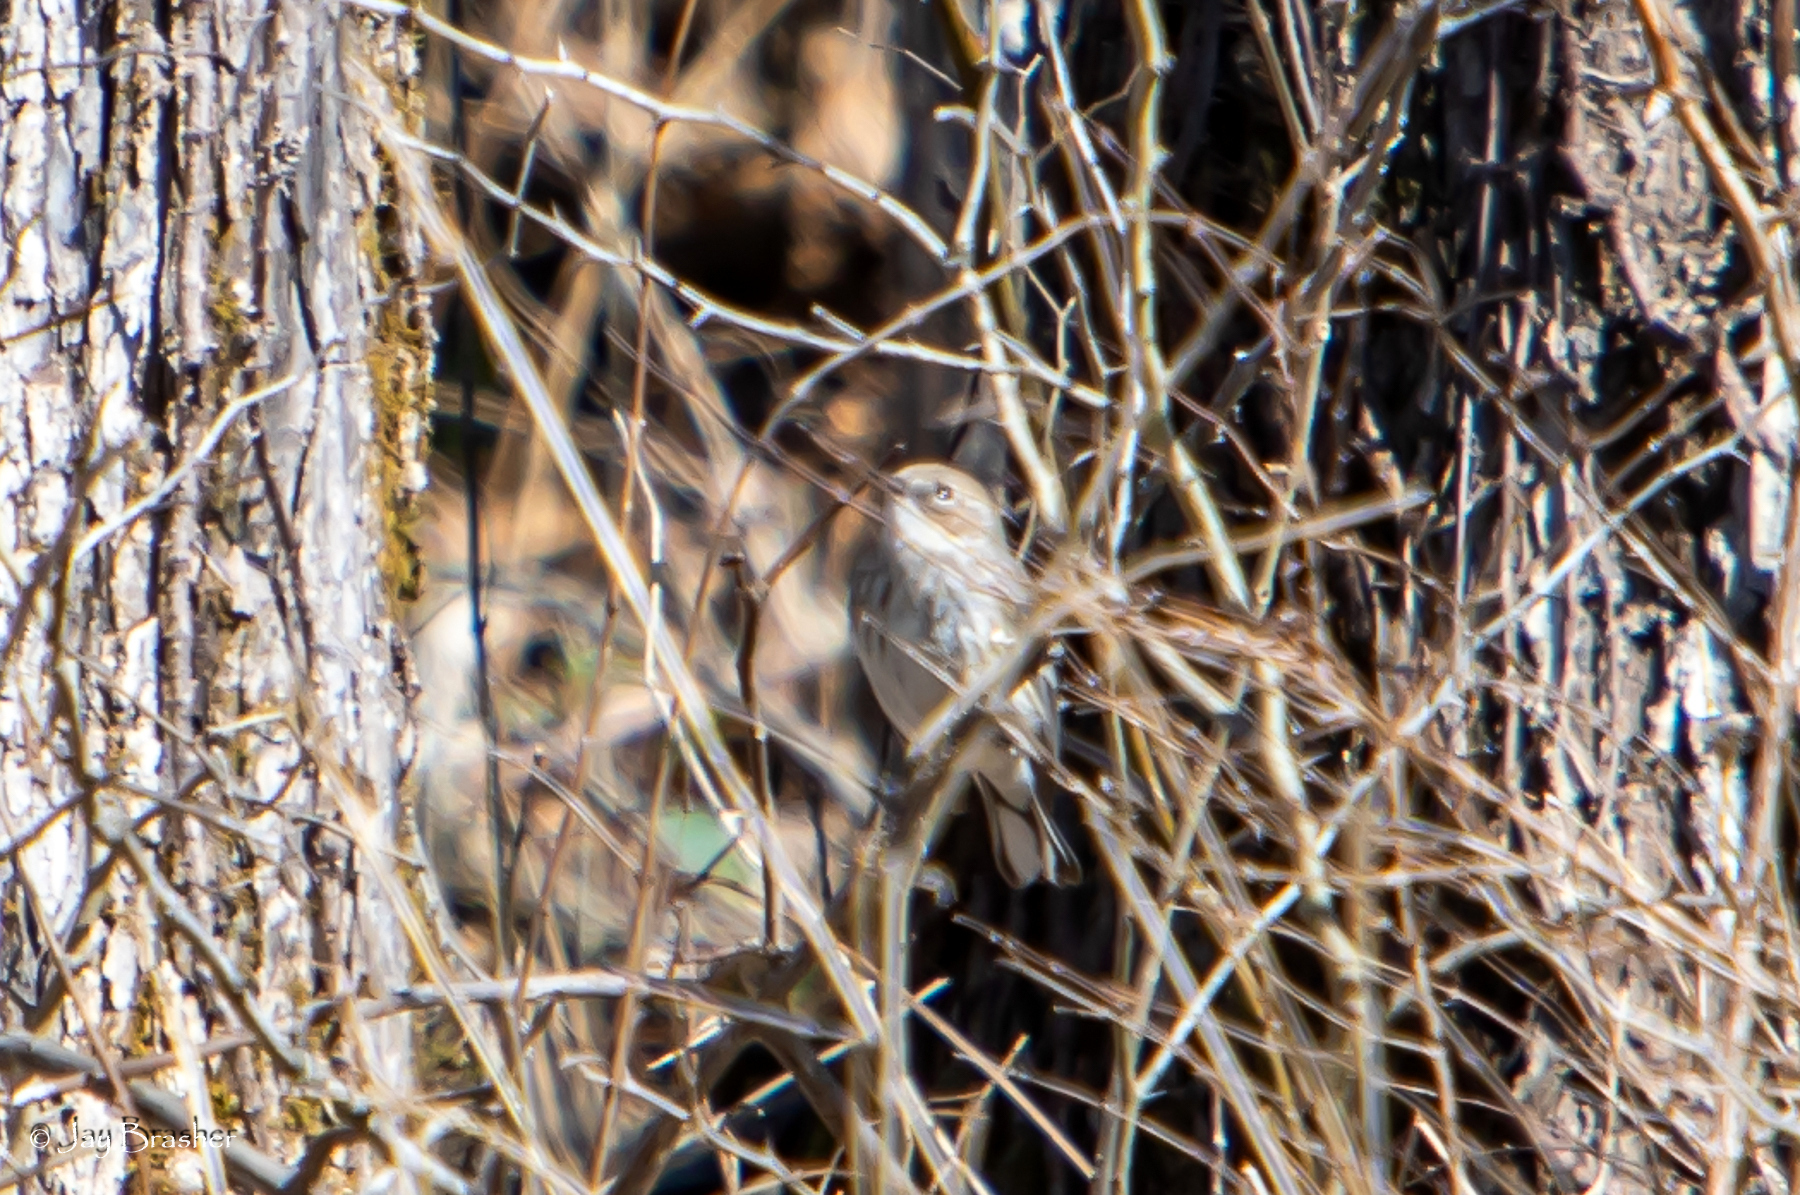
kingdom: Animalia
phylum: Chordata
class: Aves
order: Passeriformes
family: Parulidae
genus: Setophaga
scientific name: Setophaga coronata
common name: Myrtle warbler
